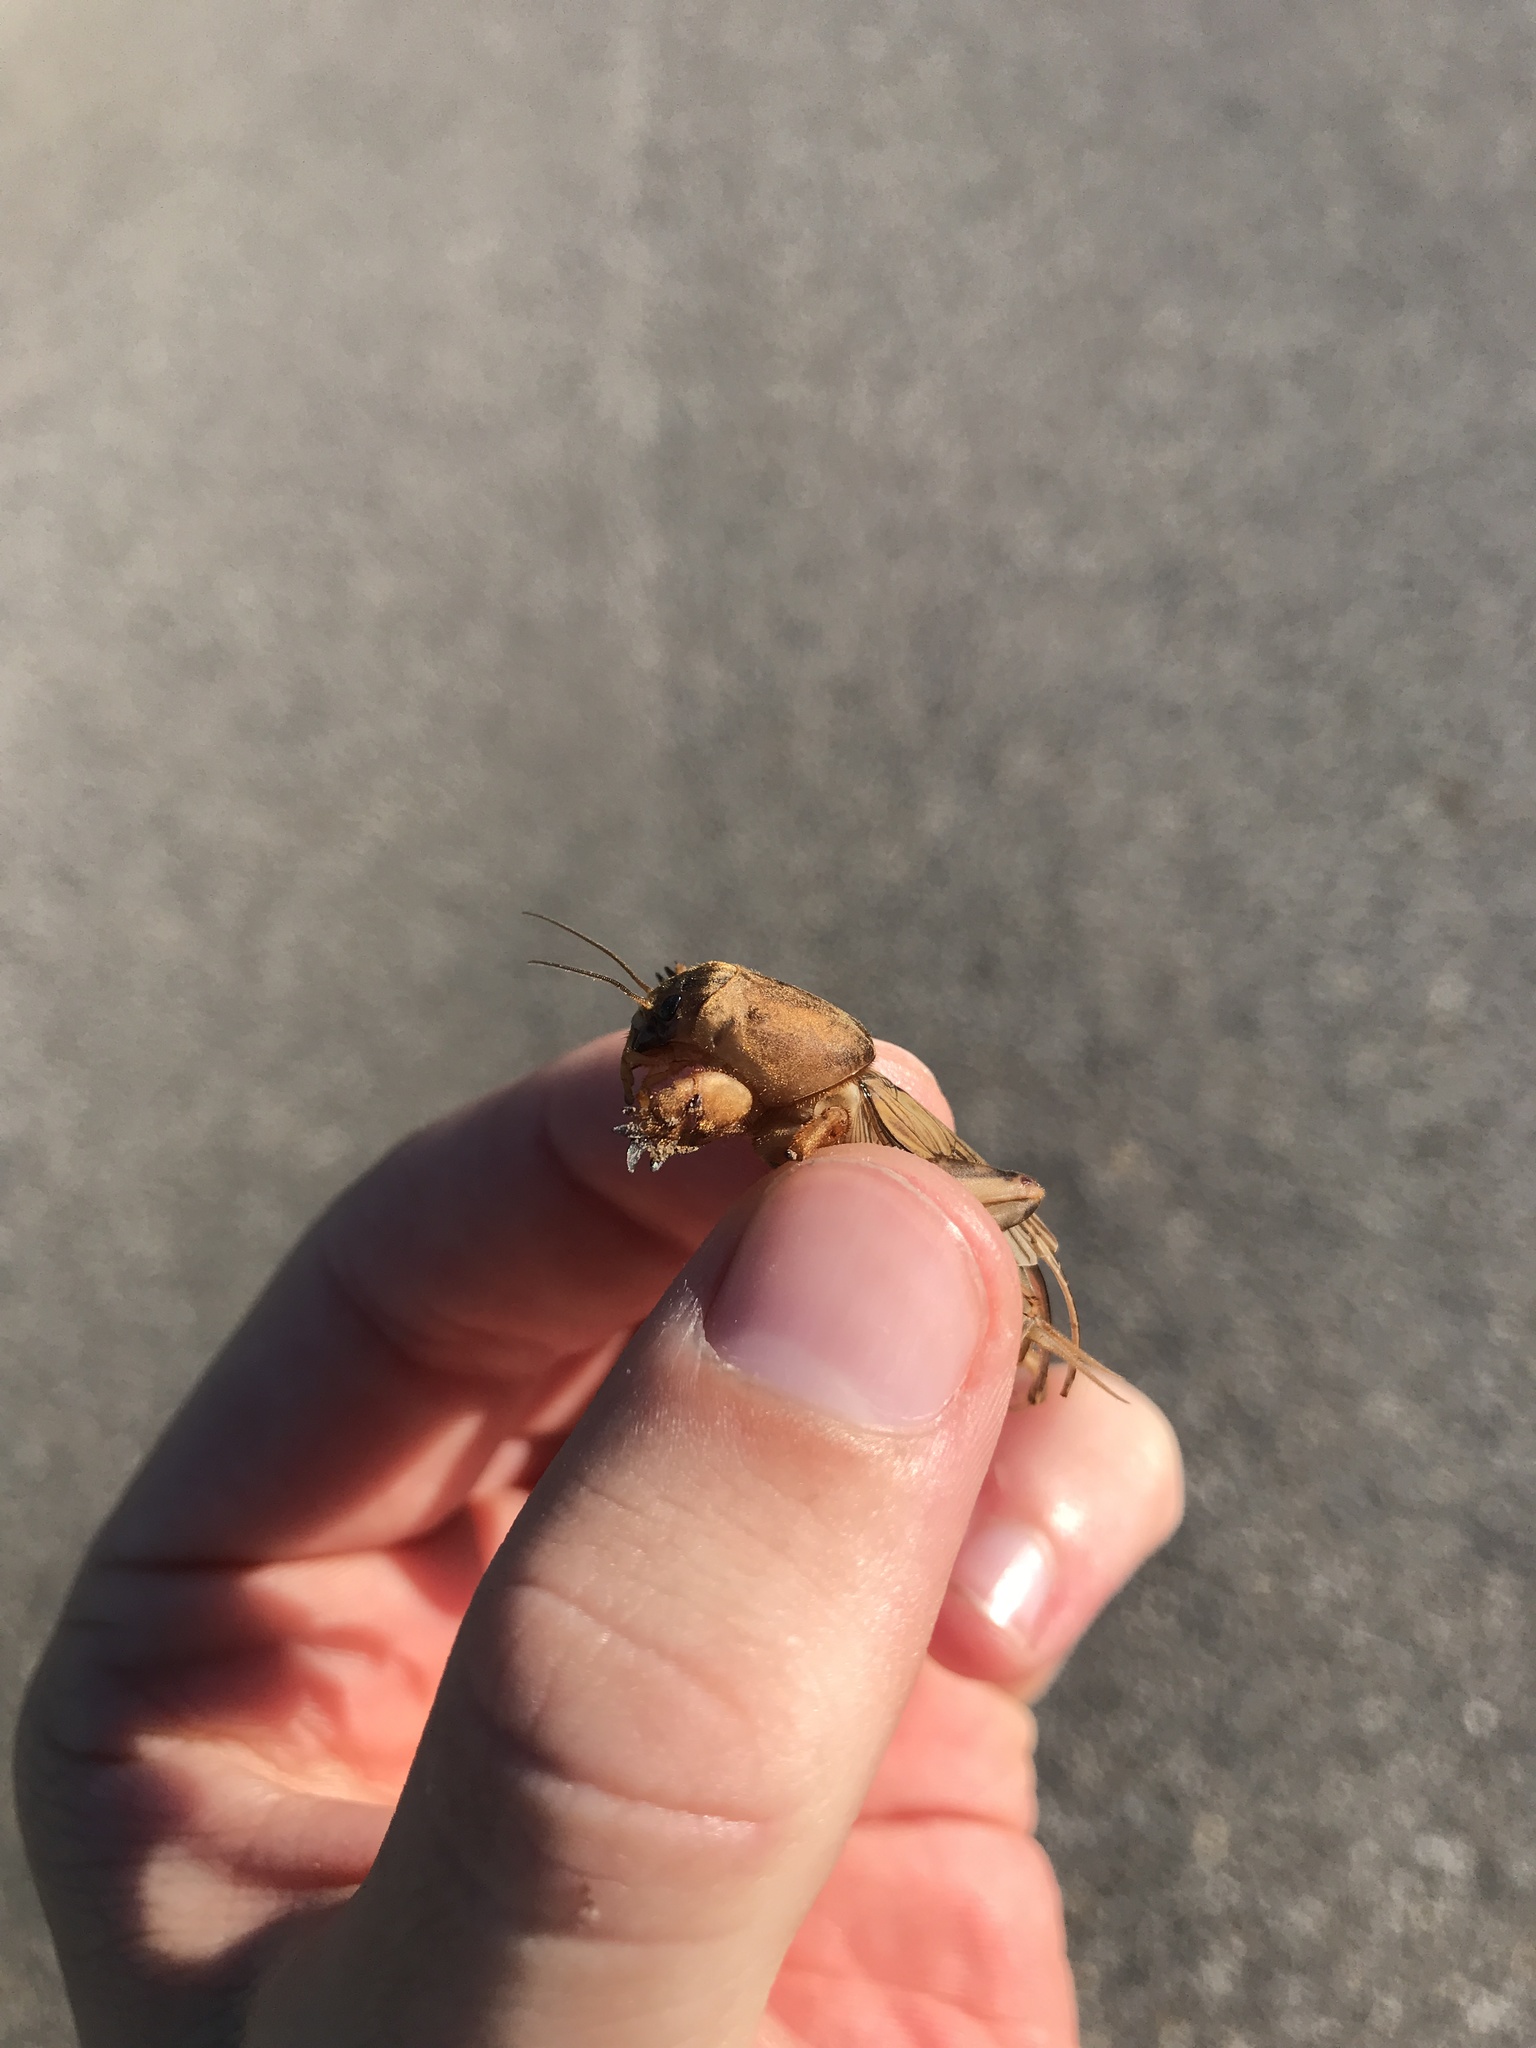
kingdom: Animalia
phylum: Arthropoda
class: Insecta
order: Orthoptera
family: Gryllotalpidae
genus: Neoscapteriscus
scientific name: Neoscapteriscus vicinus
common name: Tawny mole cricket
